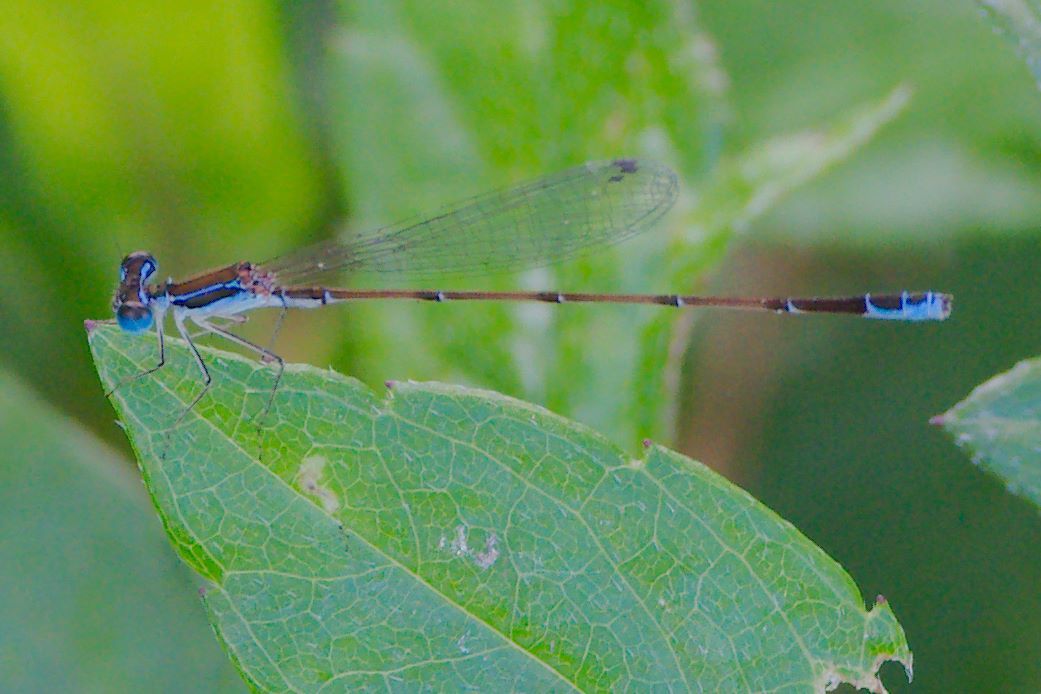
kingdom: Animalia
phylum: Arthropoda
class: Insecta
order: Odonata
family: Coenagrionidae
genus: Nehalennia
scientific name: Nehalennia pallidula
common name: Everglades sprite
